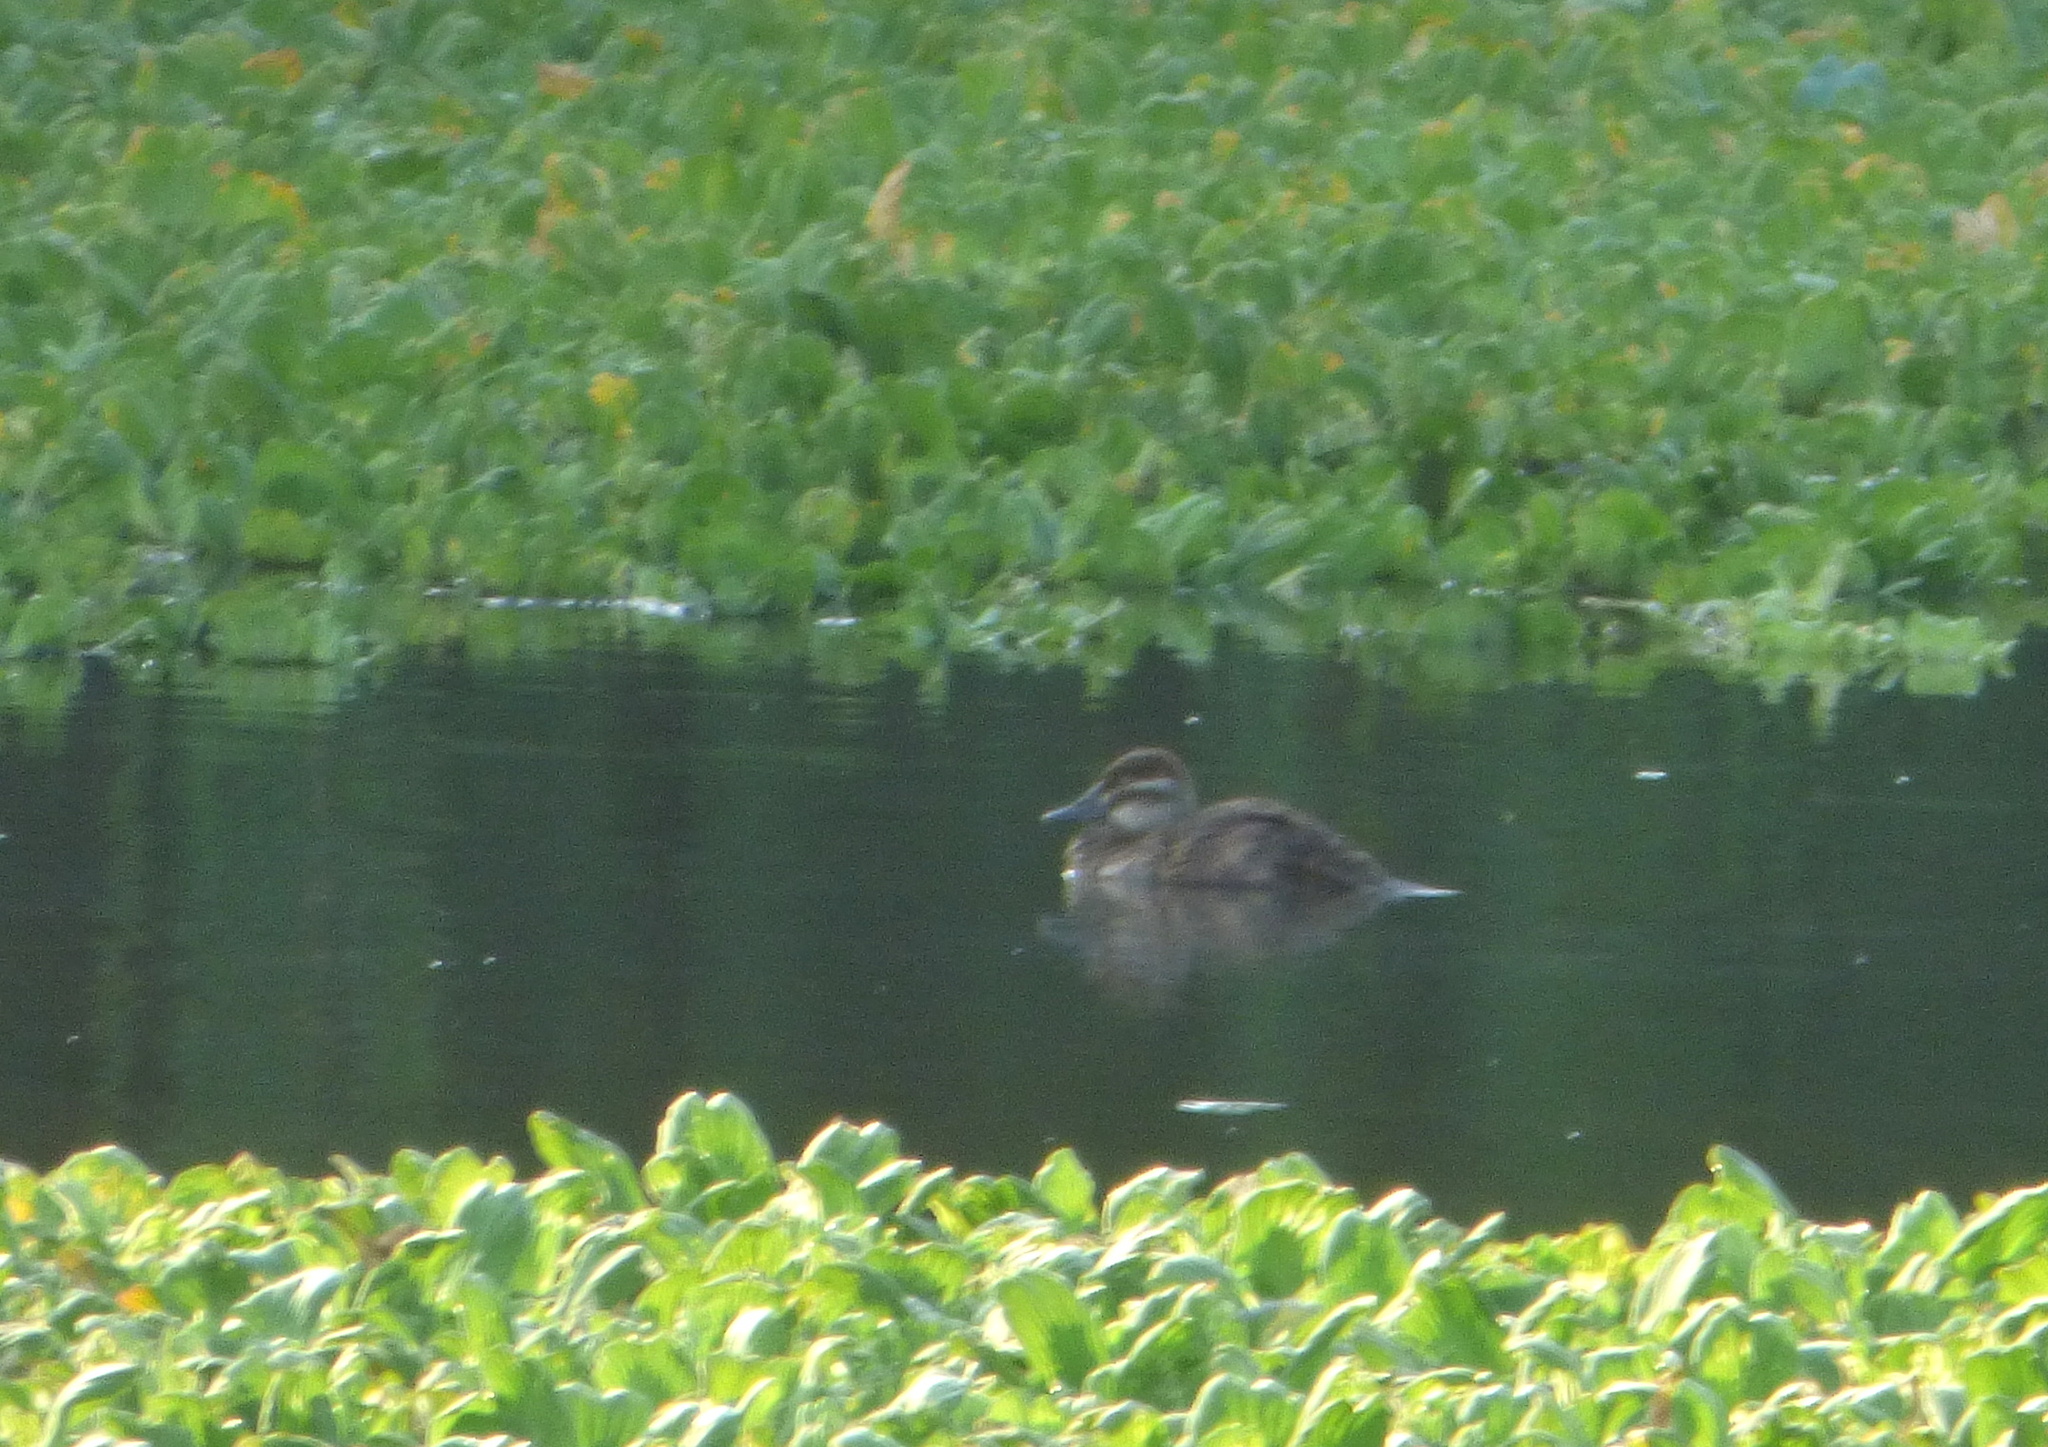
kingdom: Animalia
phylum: Chordata
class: Aves
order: Anseriformes
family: Anatidae
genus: Oxyura
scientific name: Oxyura vittata
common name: Lake duck
